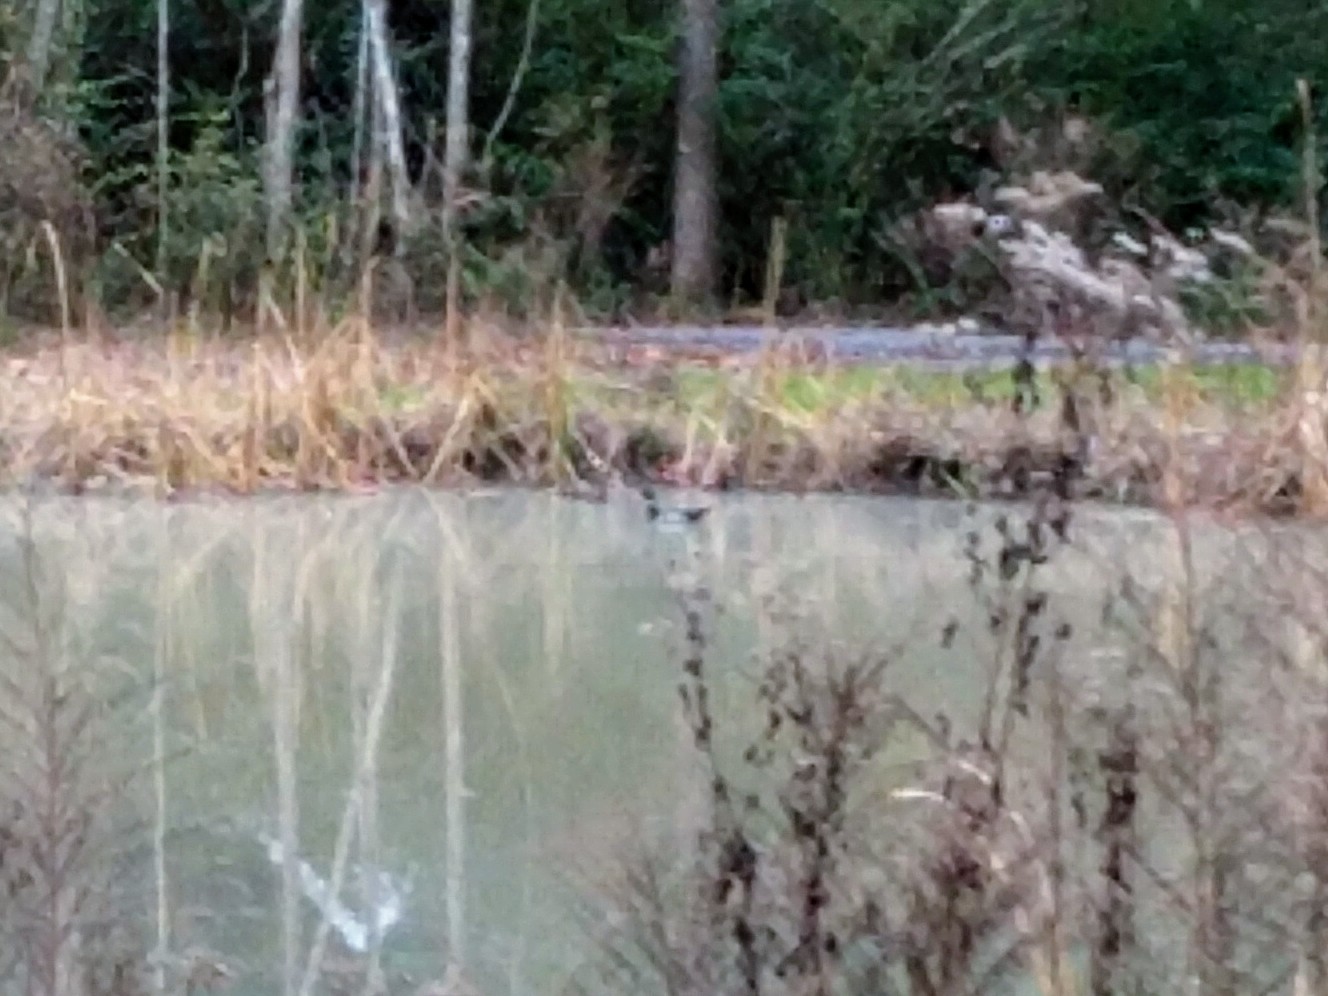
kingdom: Animalia
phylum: Chordata
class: Aves
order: Anseriformes
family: Anatidae
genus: Anas
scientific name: Anas platyrhynchos
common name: Mallard
